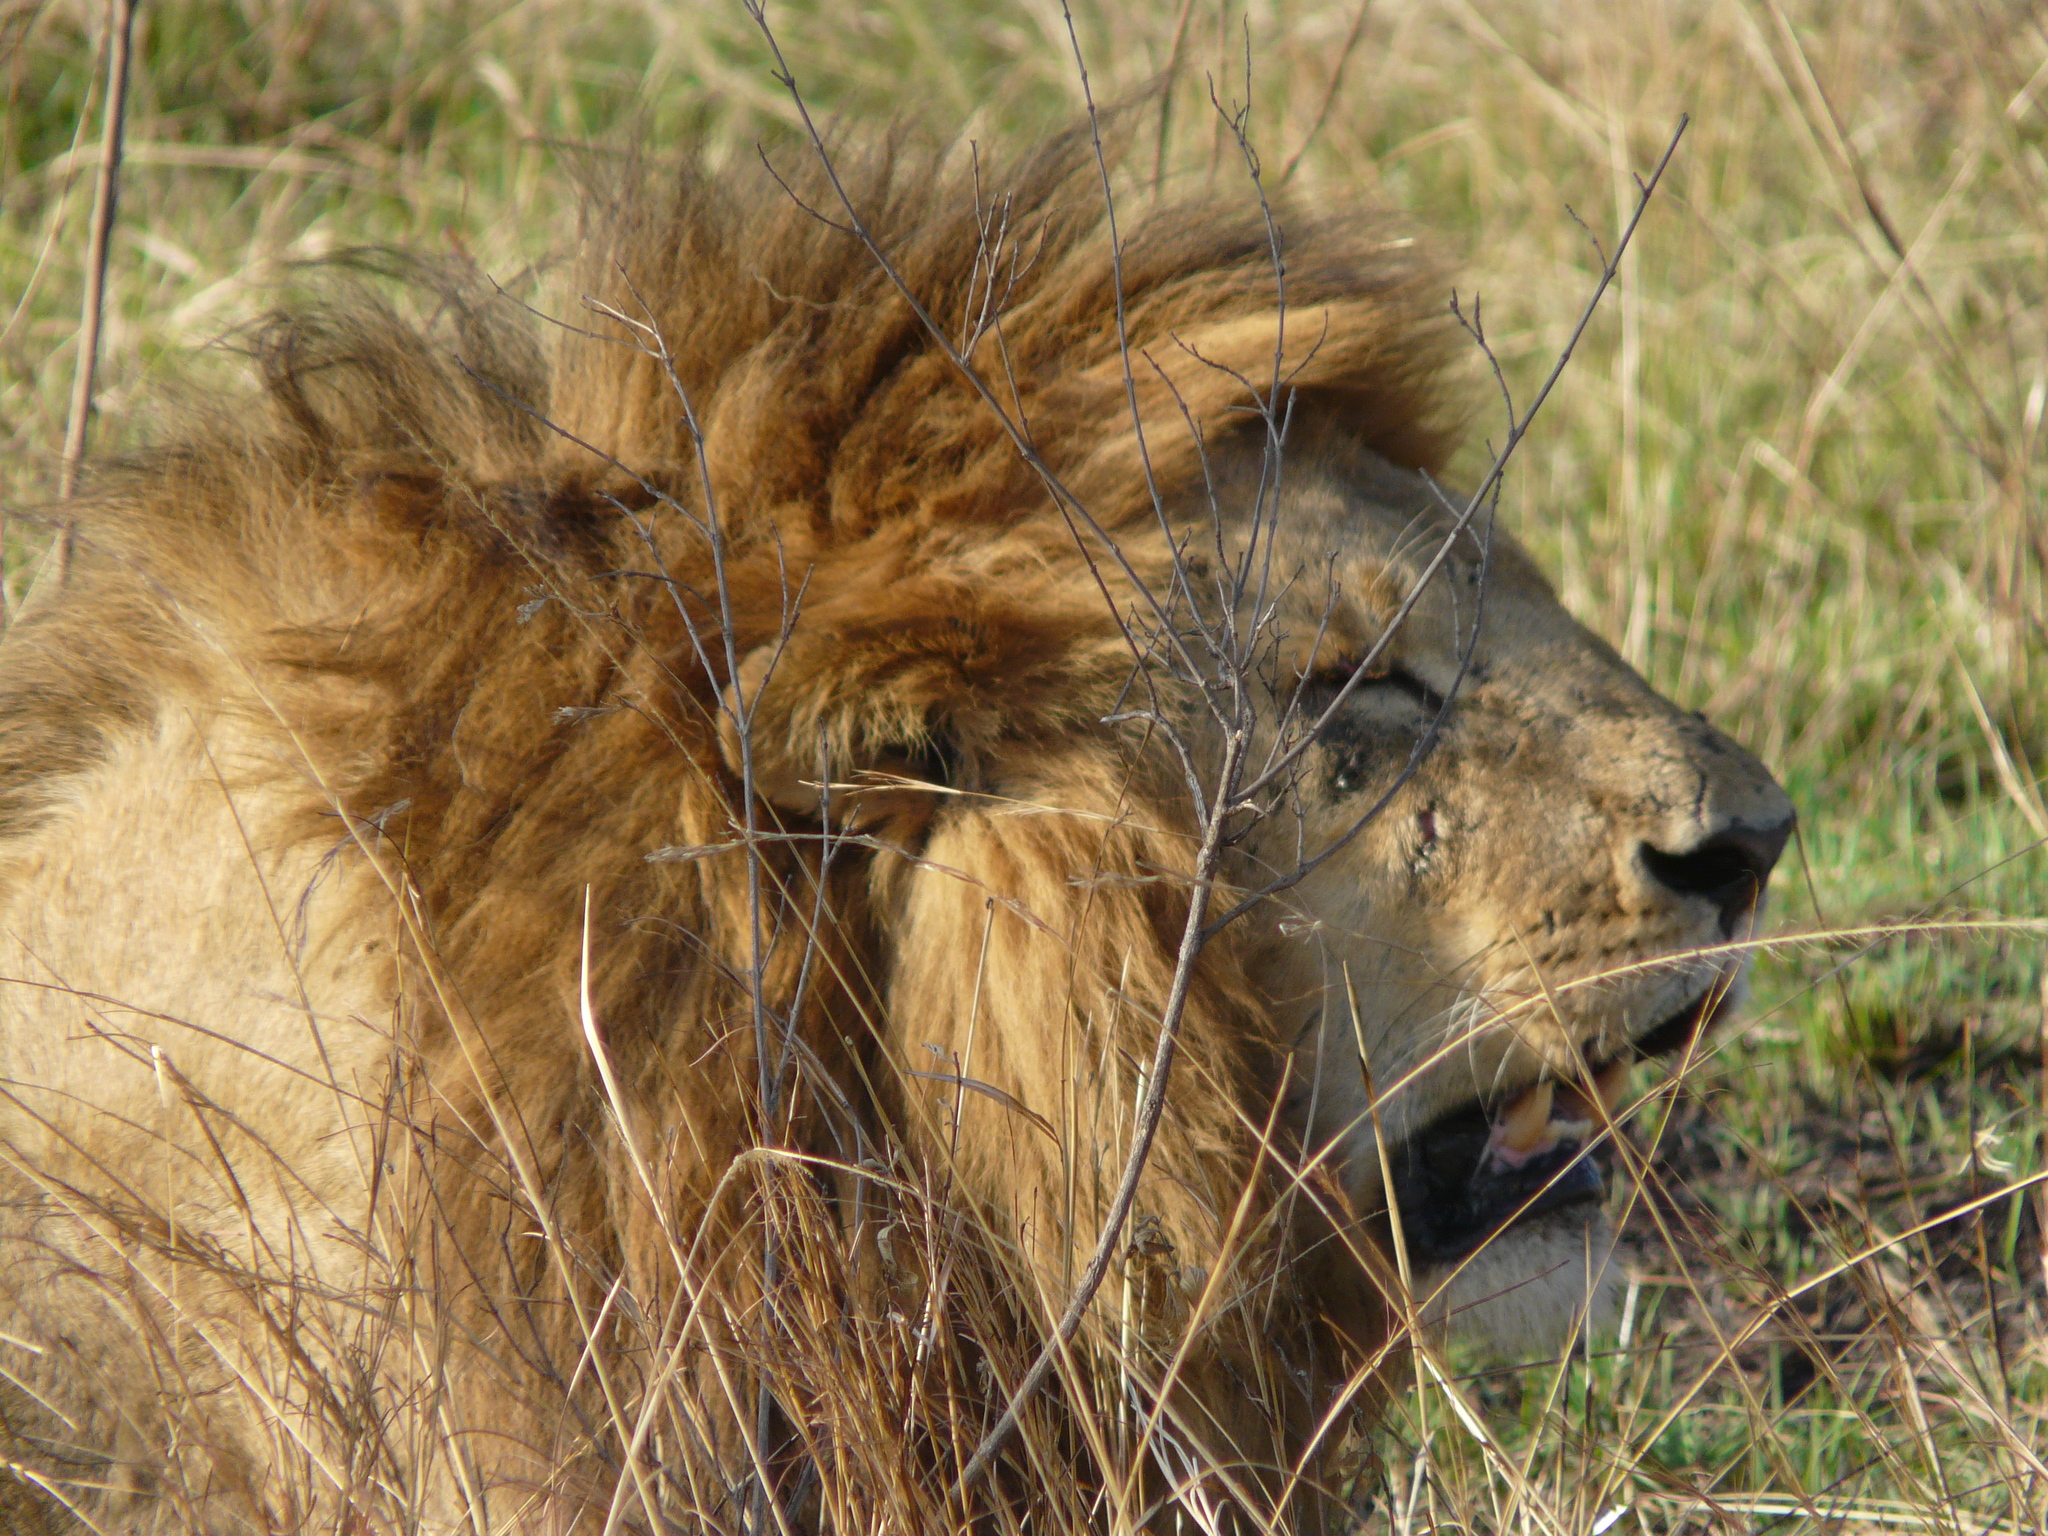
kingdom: Animalia
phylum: Chordata
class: Mammalia
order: Carnivora
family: Felidae
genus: Panthera
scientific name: Panthera leo
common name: Lion
